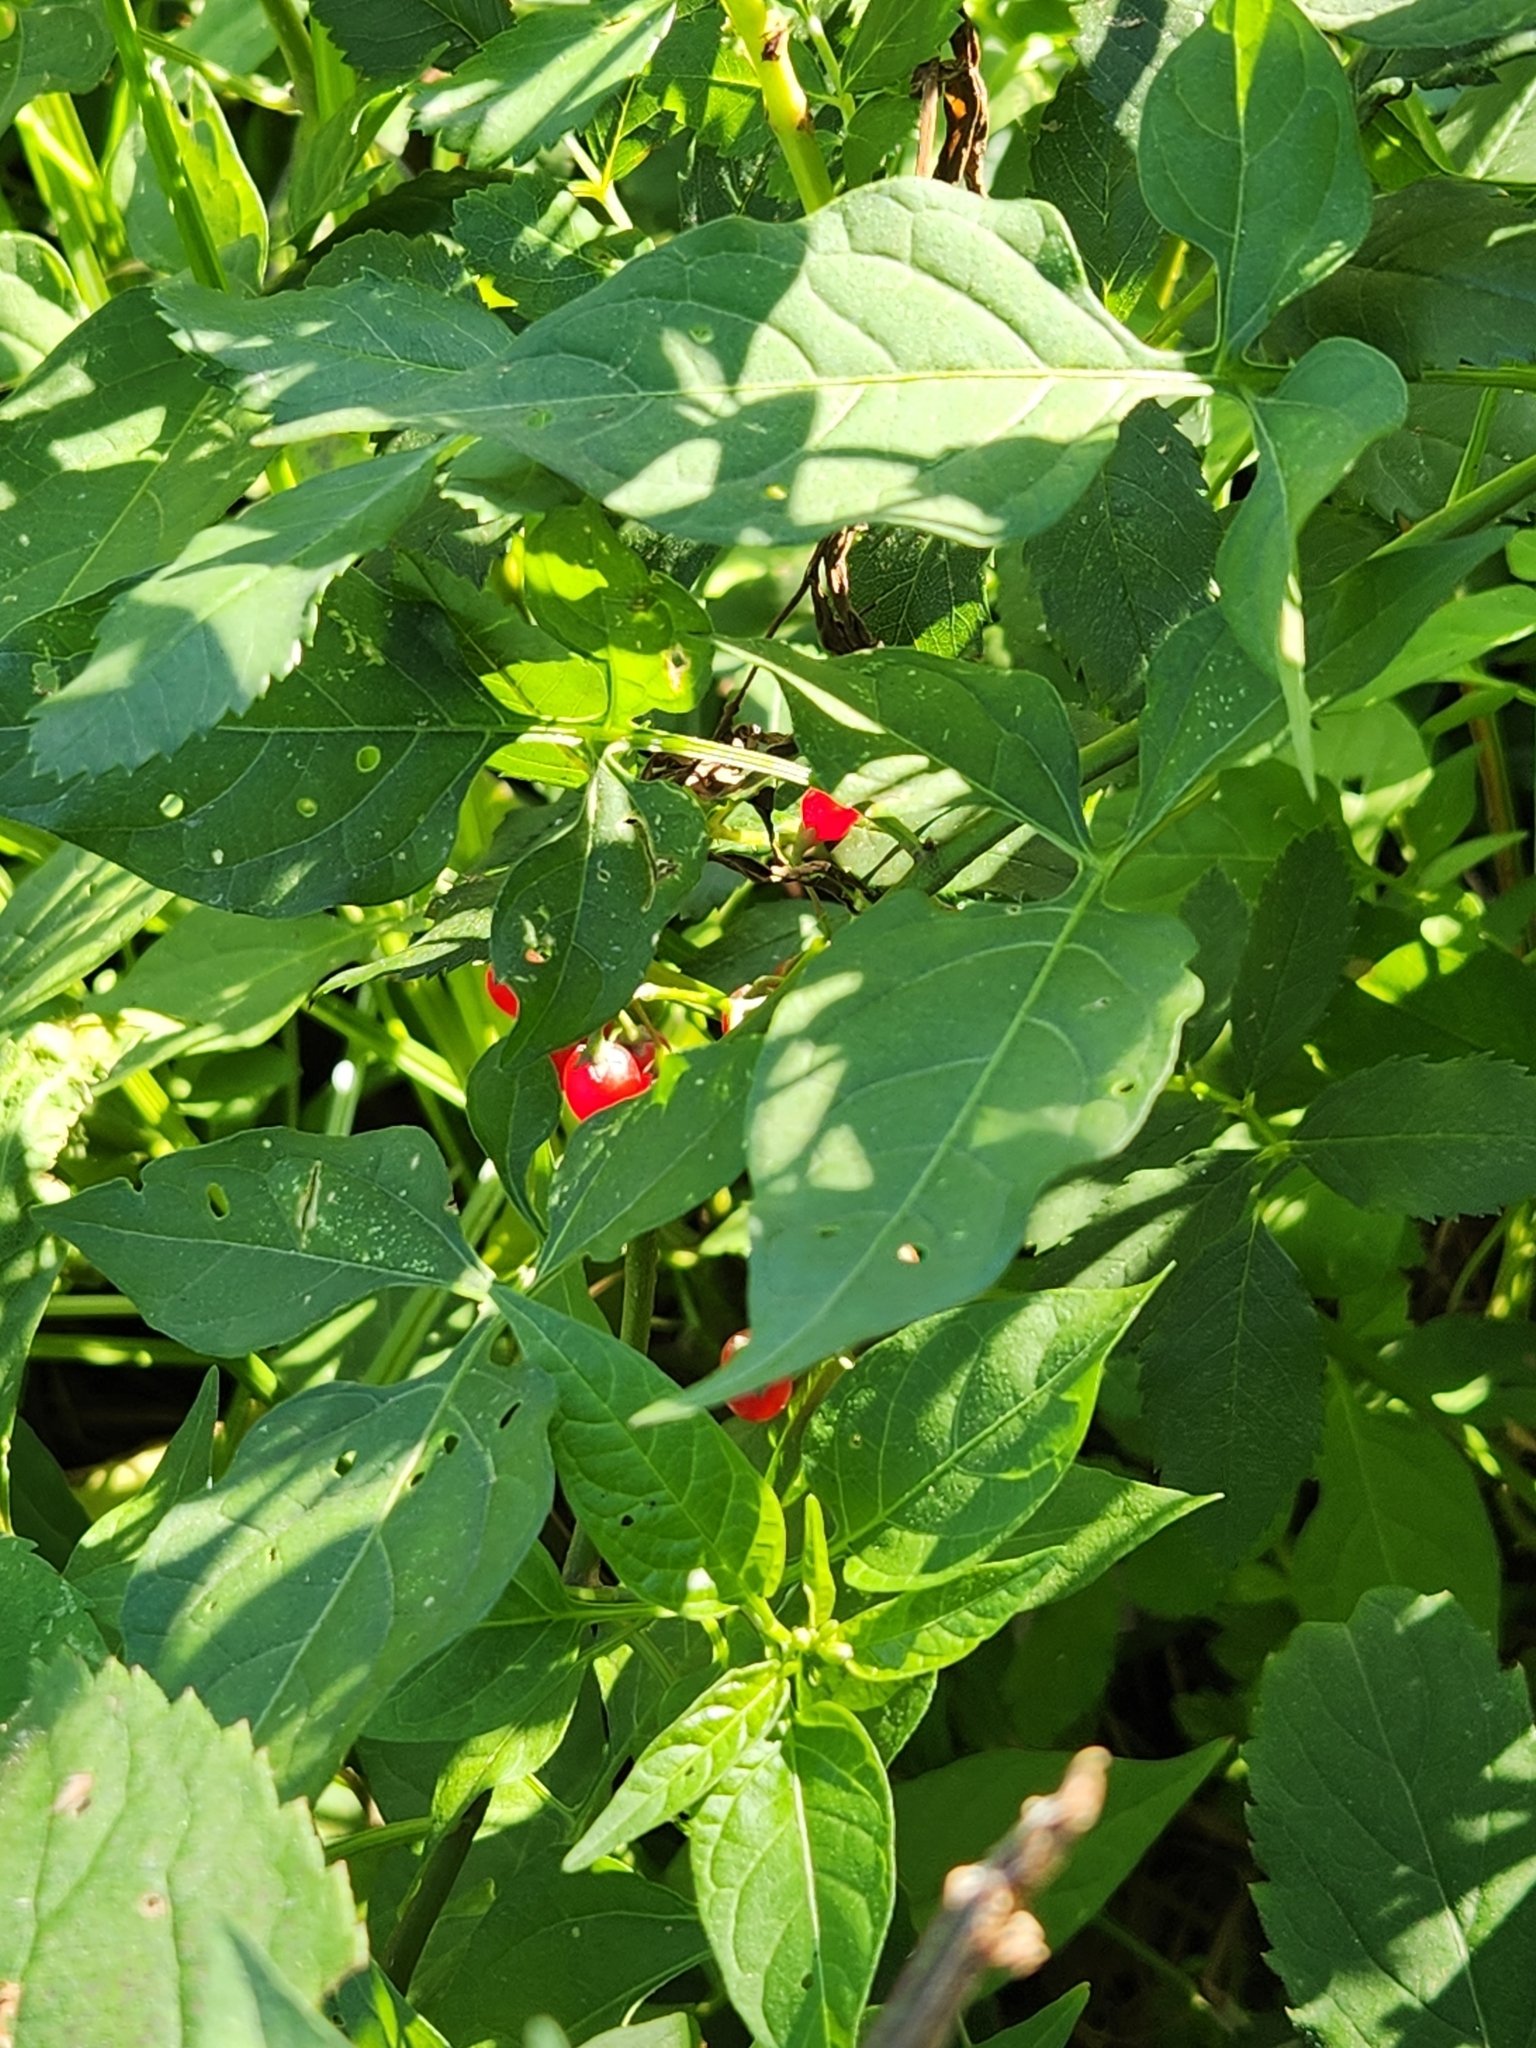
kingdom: Plantae
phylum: Tracheophyta
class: Magnoliopsida
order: Solanales
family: Solanaceae
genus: Solanum
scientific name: Solanum dulcamara
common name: Climbing nightshade
